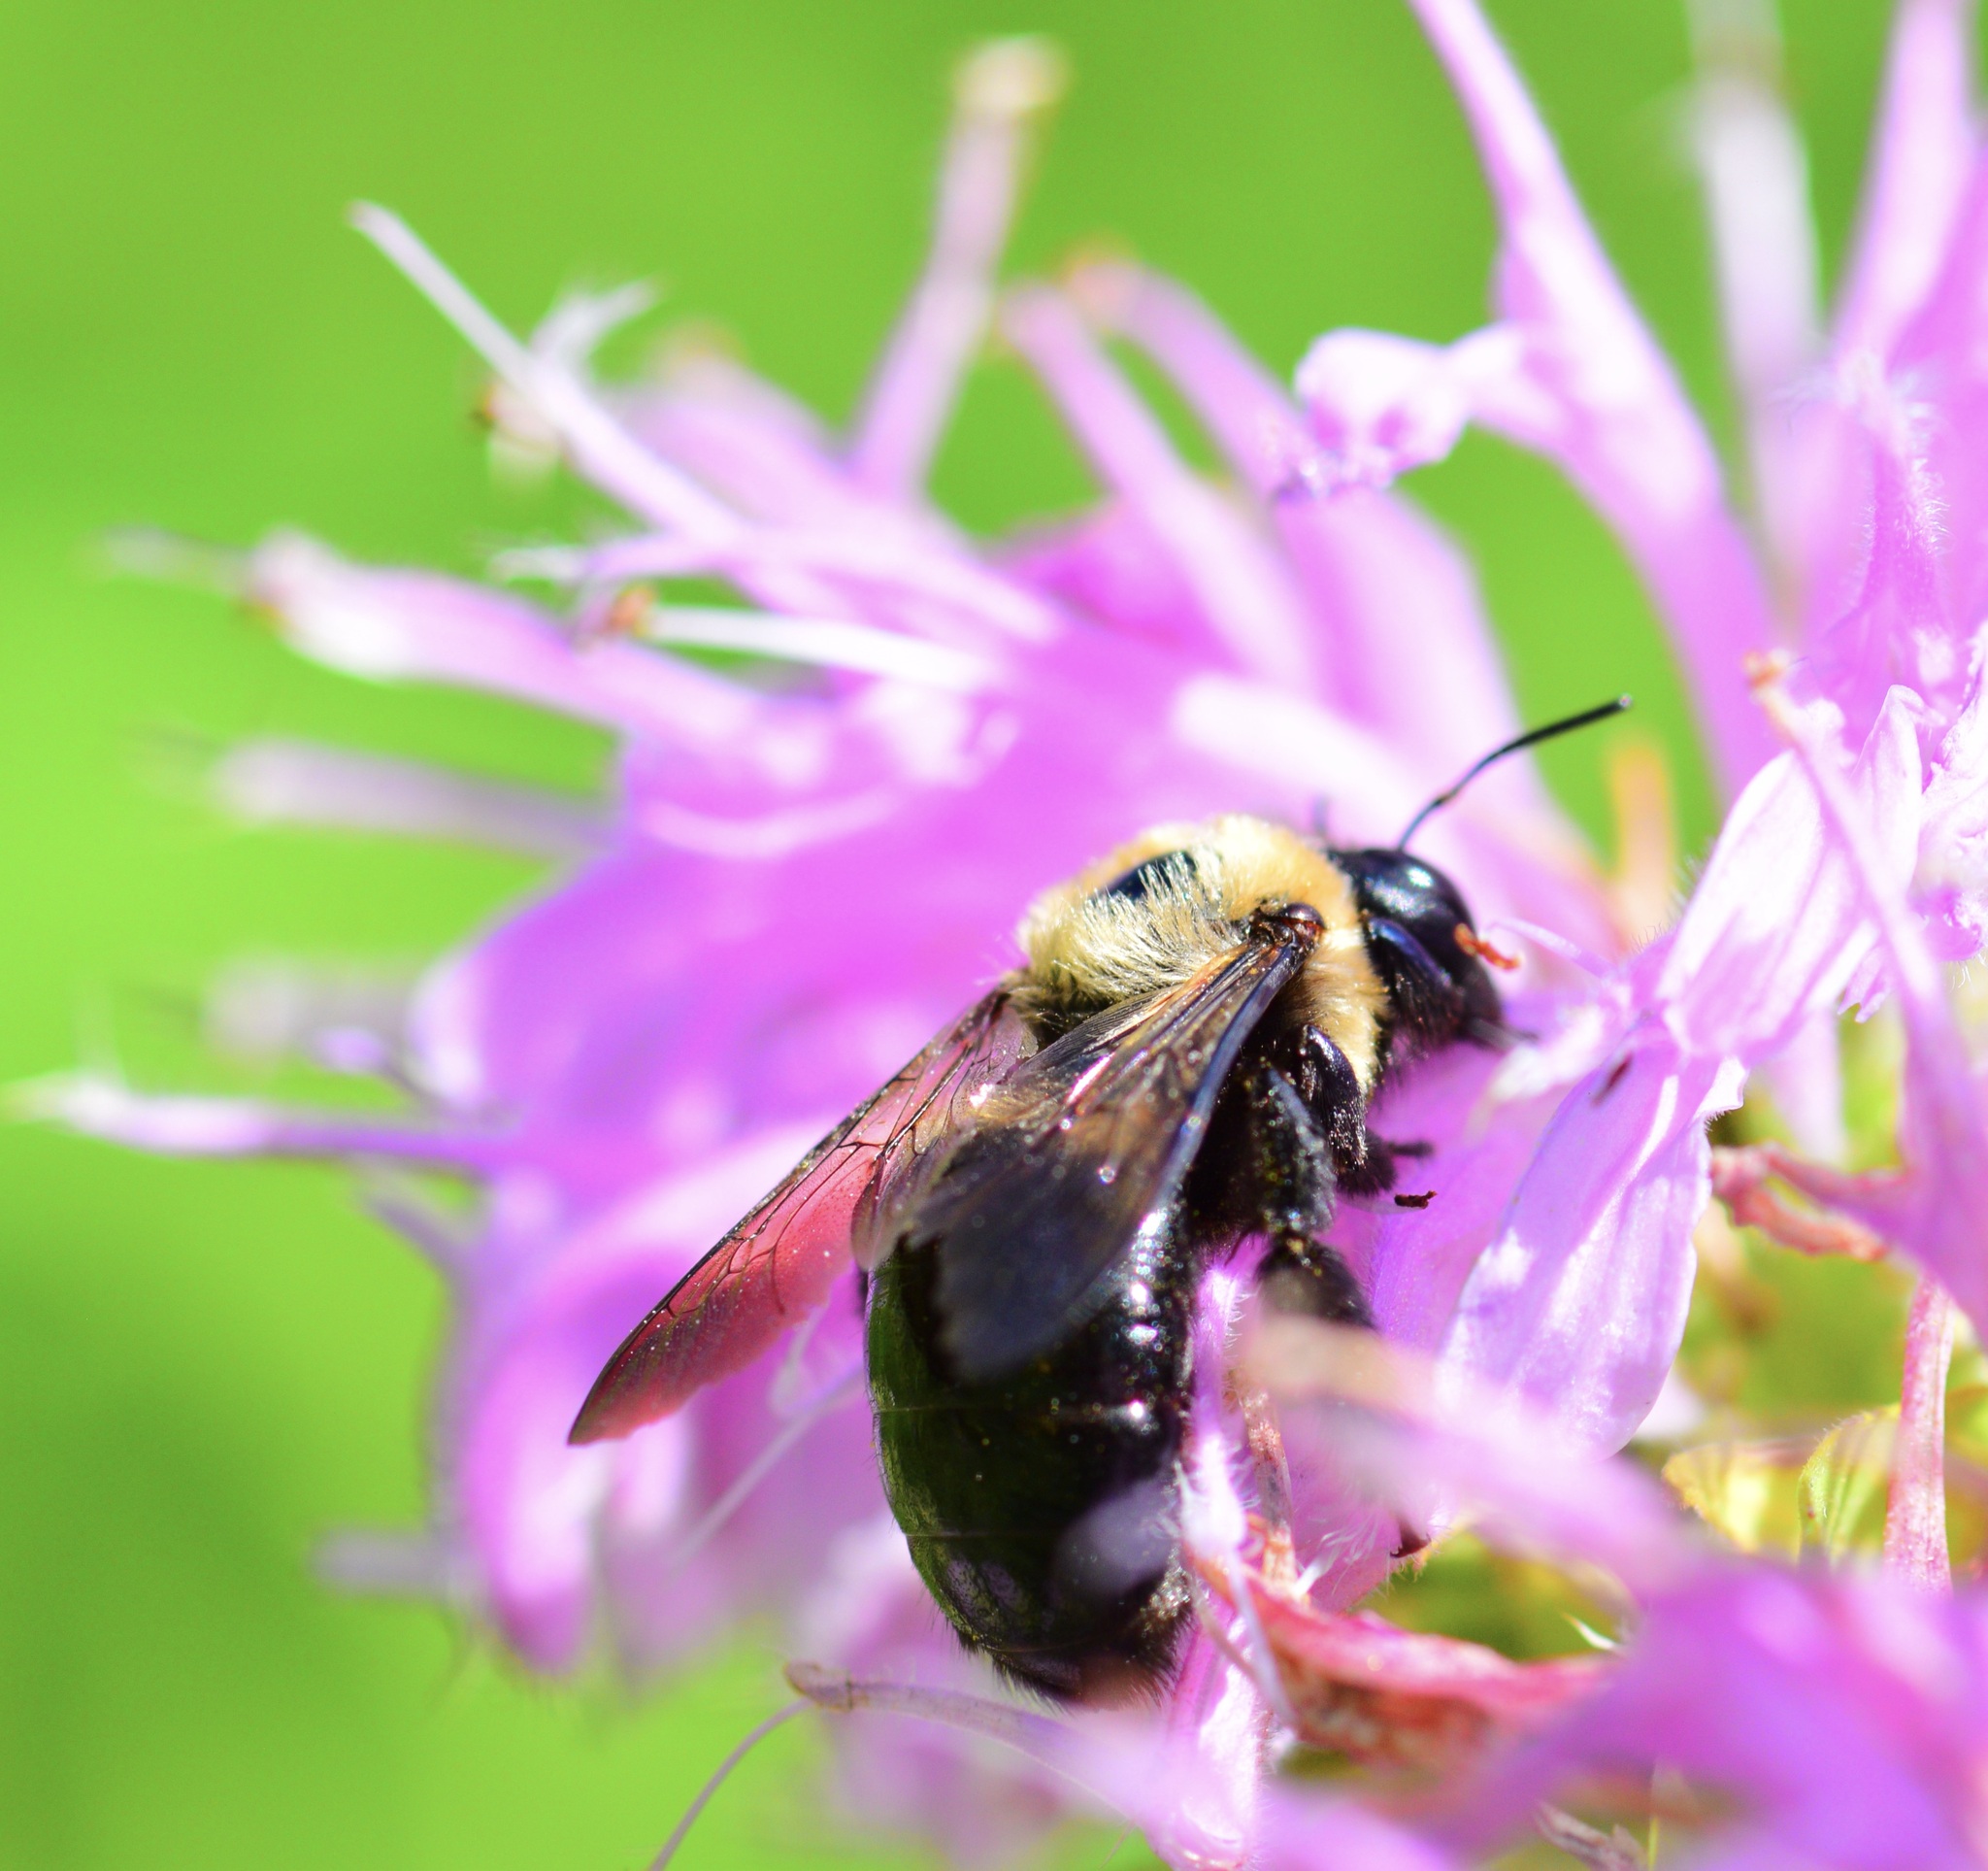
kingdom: Animalia
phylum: Arthropoda
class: Insecta
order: Hymenoptera
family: Apidae
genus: Xylocopa
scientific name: Xylocopa virginica
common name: Carpenter bee
